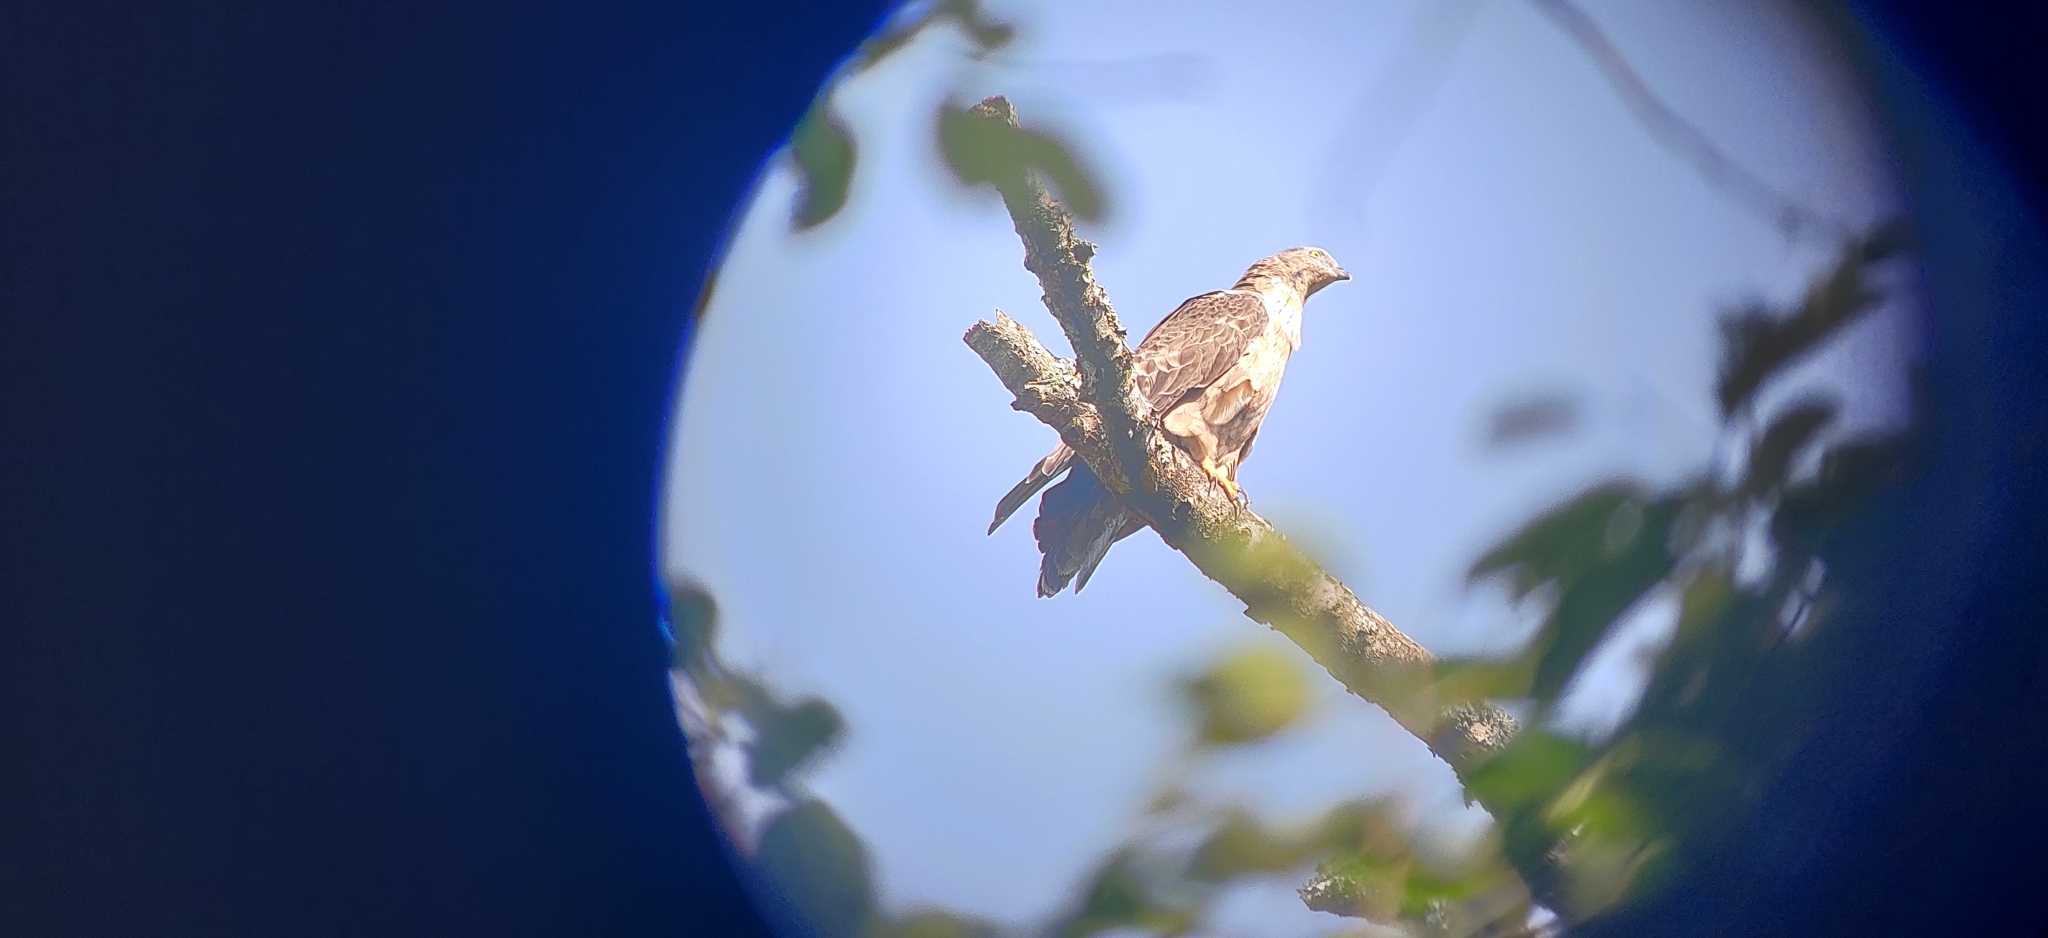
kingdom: Animalia
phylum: Chordata
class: Aves
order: Accipitriformes
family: Accipitridae
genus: Pernis
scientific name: Pernis ptilorhynchus
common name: Crested honey buzzard
